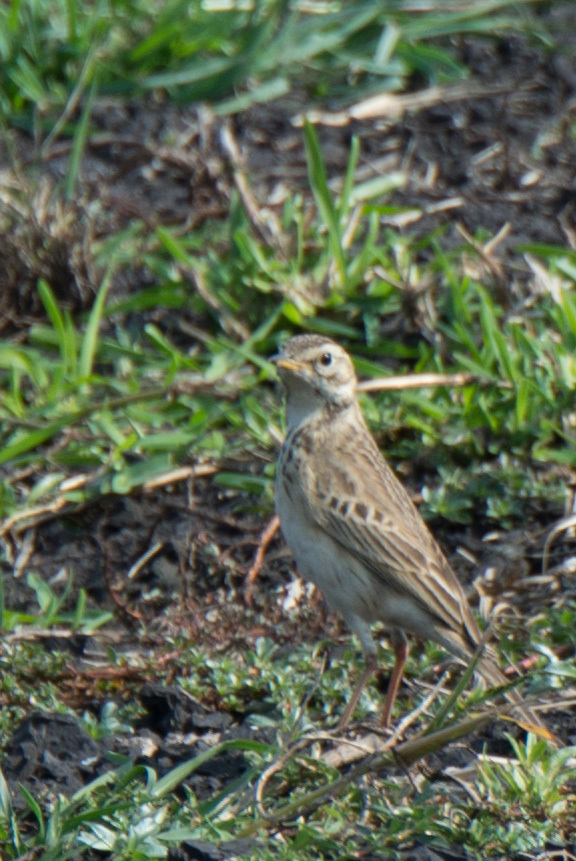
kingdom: Animalia
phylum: Chordata
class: Aves
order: Passeriformes
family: Motacillidae
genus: Anthus
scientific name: Anthus cinnamomeus
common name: African pipit
